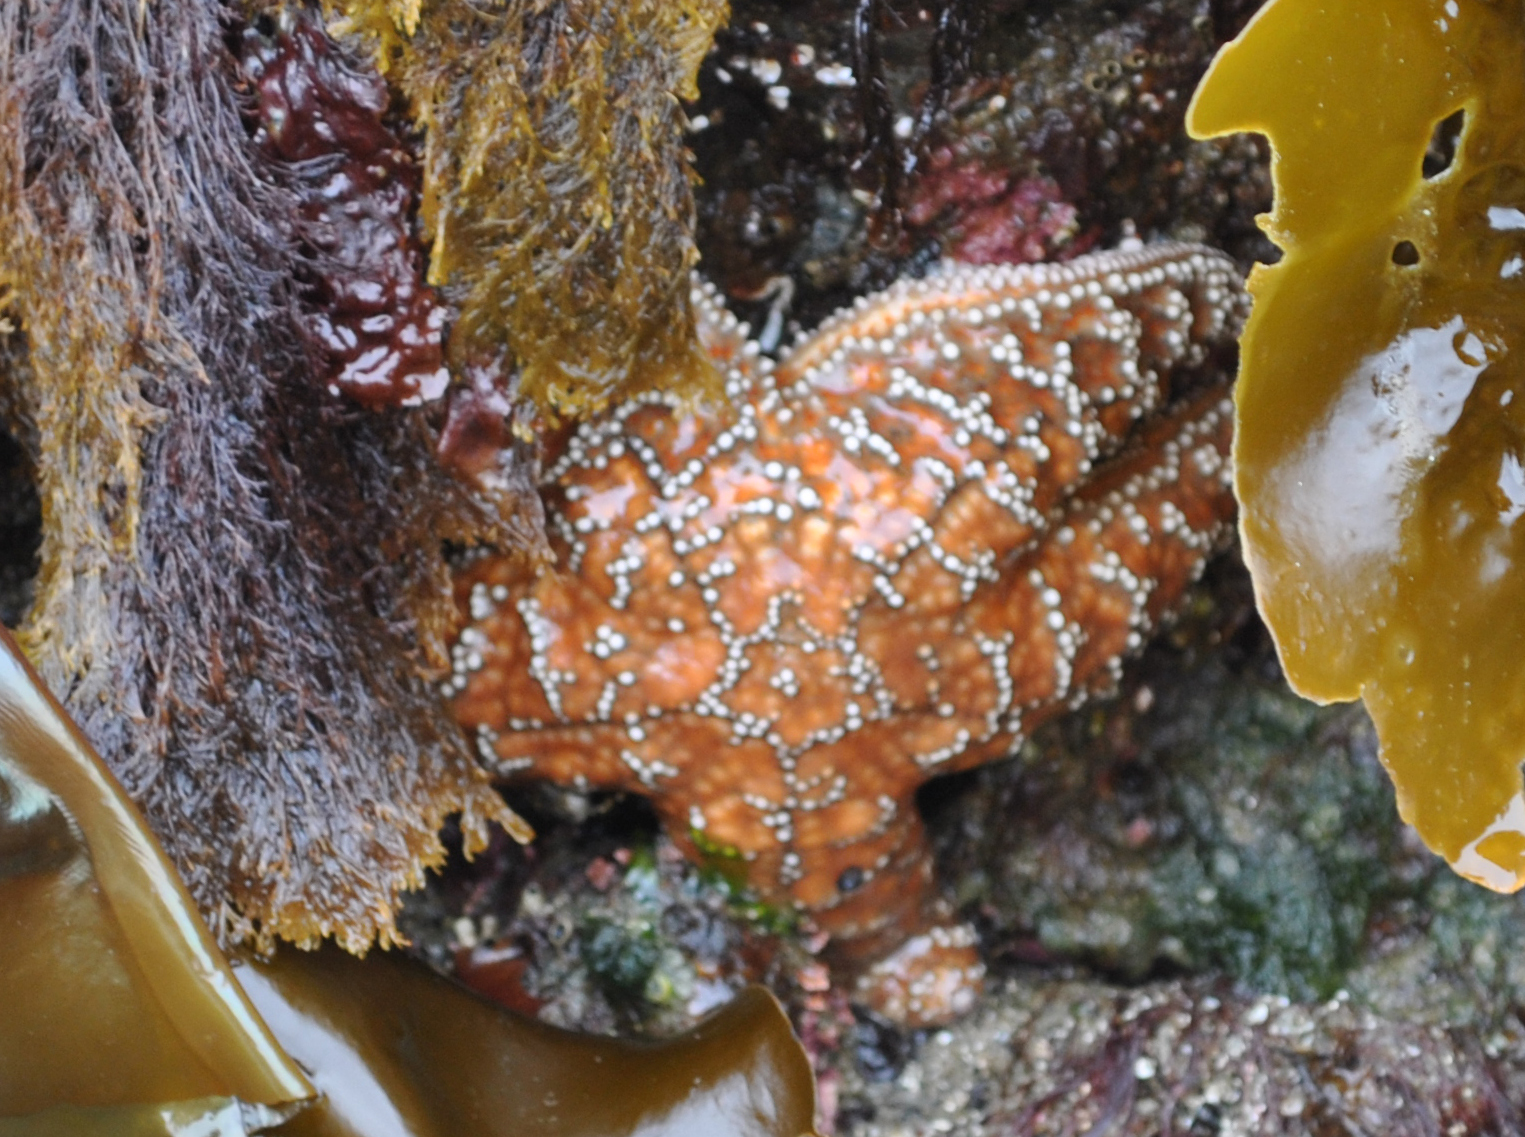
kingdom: Animalia
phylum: Echinodermata
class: Asteroidea
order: Forcipulatida
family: Asteriidae
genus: Pisaster
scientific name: Pisaster ochraceus
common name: Ochre stars
